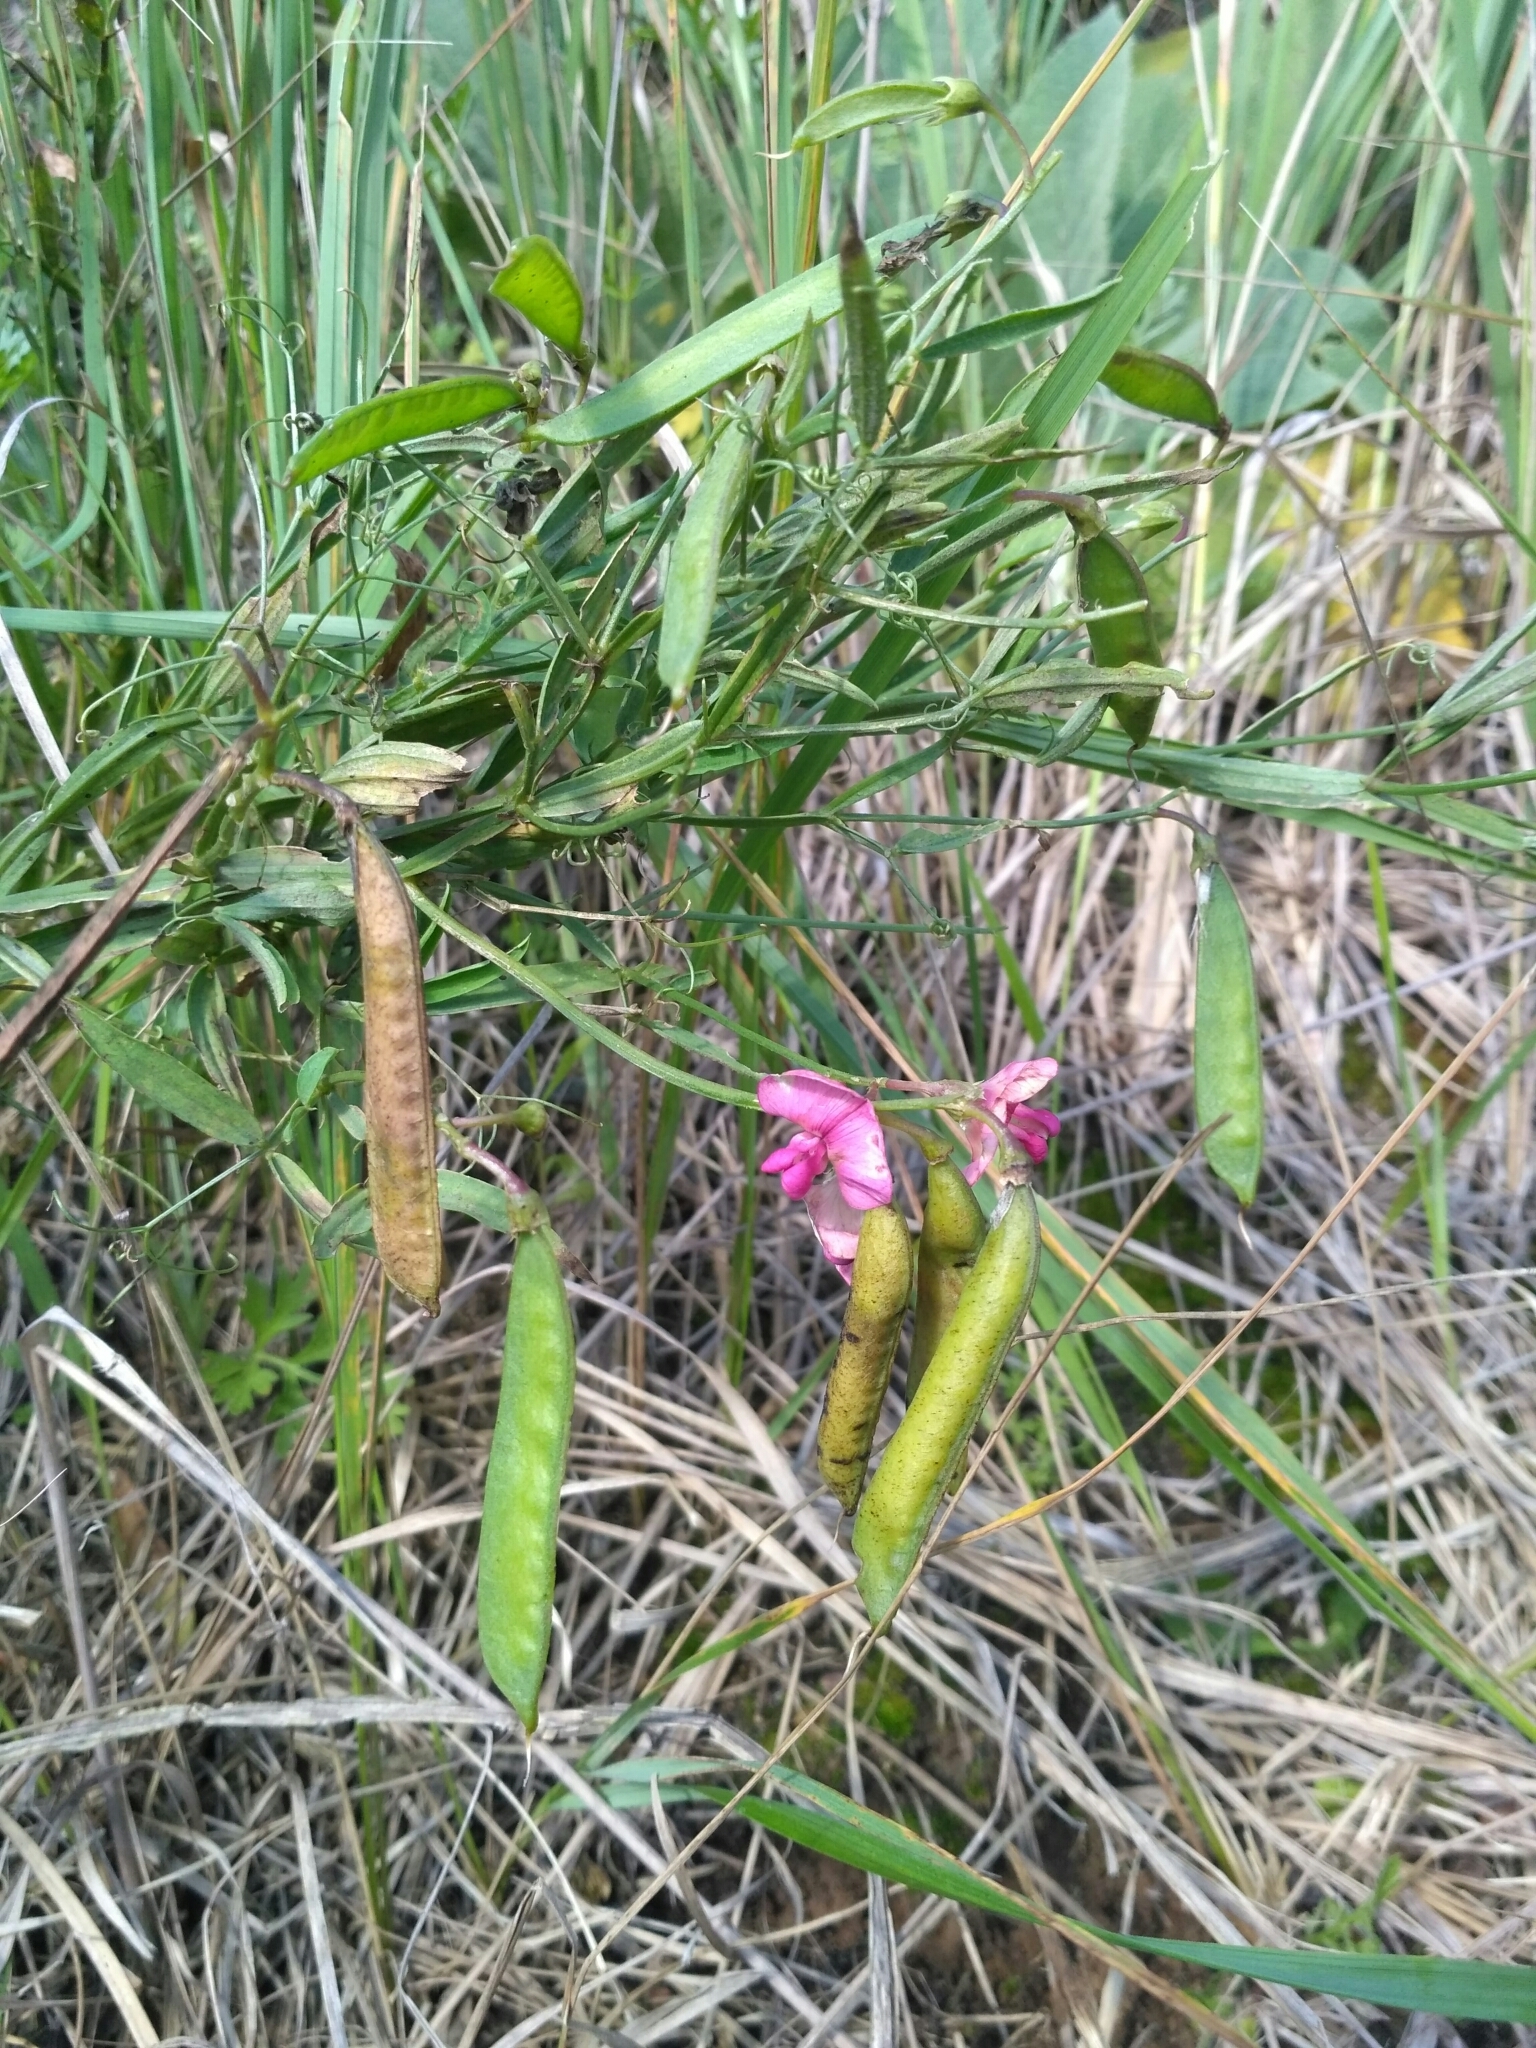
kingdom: Plantae
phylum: Tracheophyta
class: Magnoliopsida
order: Fabales
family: Fabaceae
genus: Lathyrus
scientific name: Lathyrus sylvestris
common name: Flat pea
